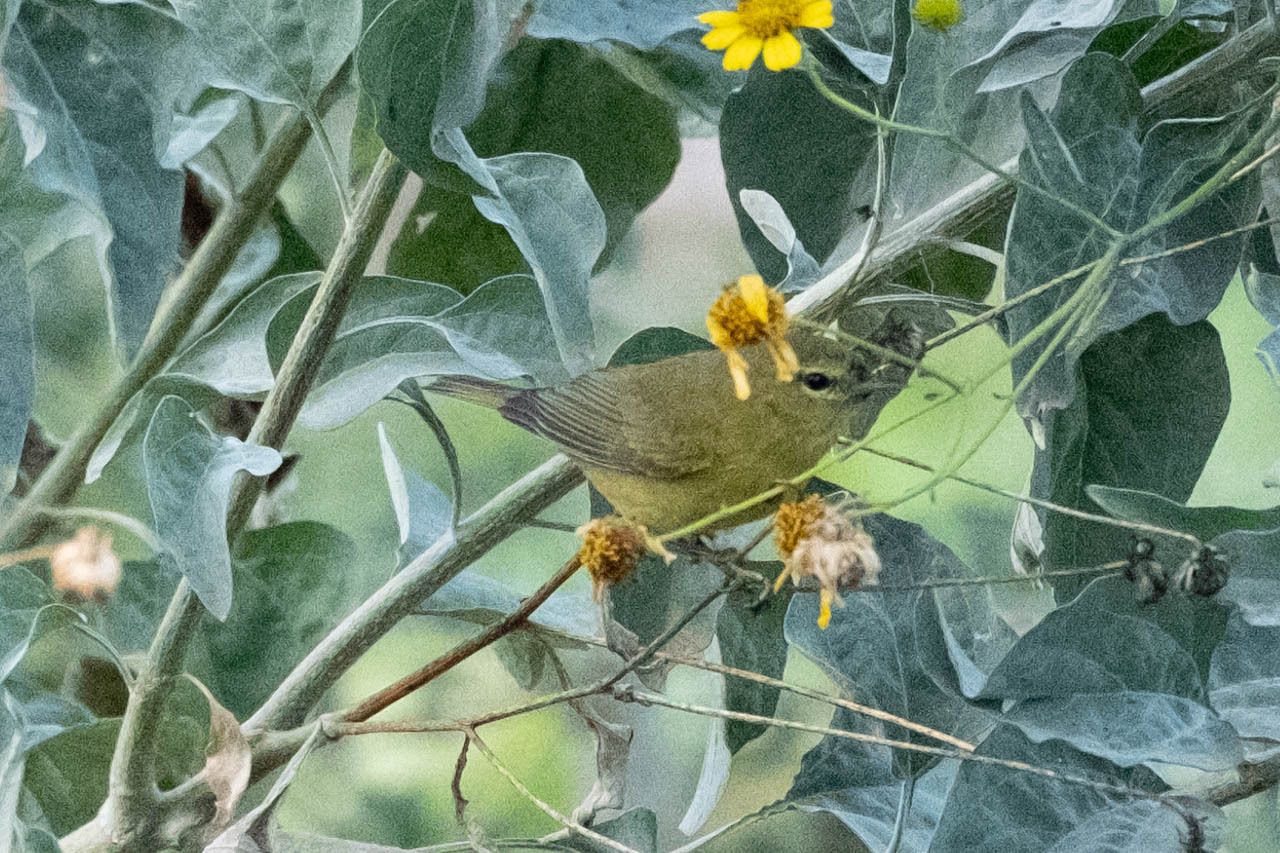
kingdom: Animalia
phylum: Chordata
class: Aves
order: Passeriformes
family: Parulidae
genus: Leiothlypis
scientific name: Leiothlypis celata
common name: Orange-crowned warbler
